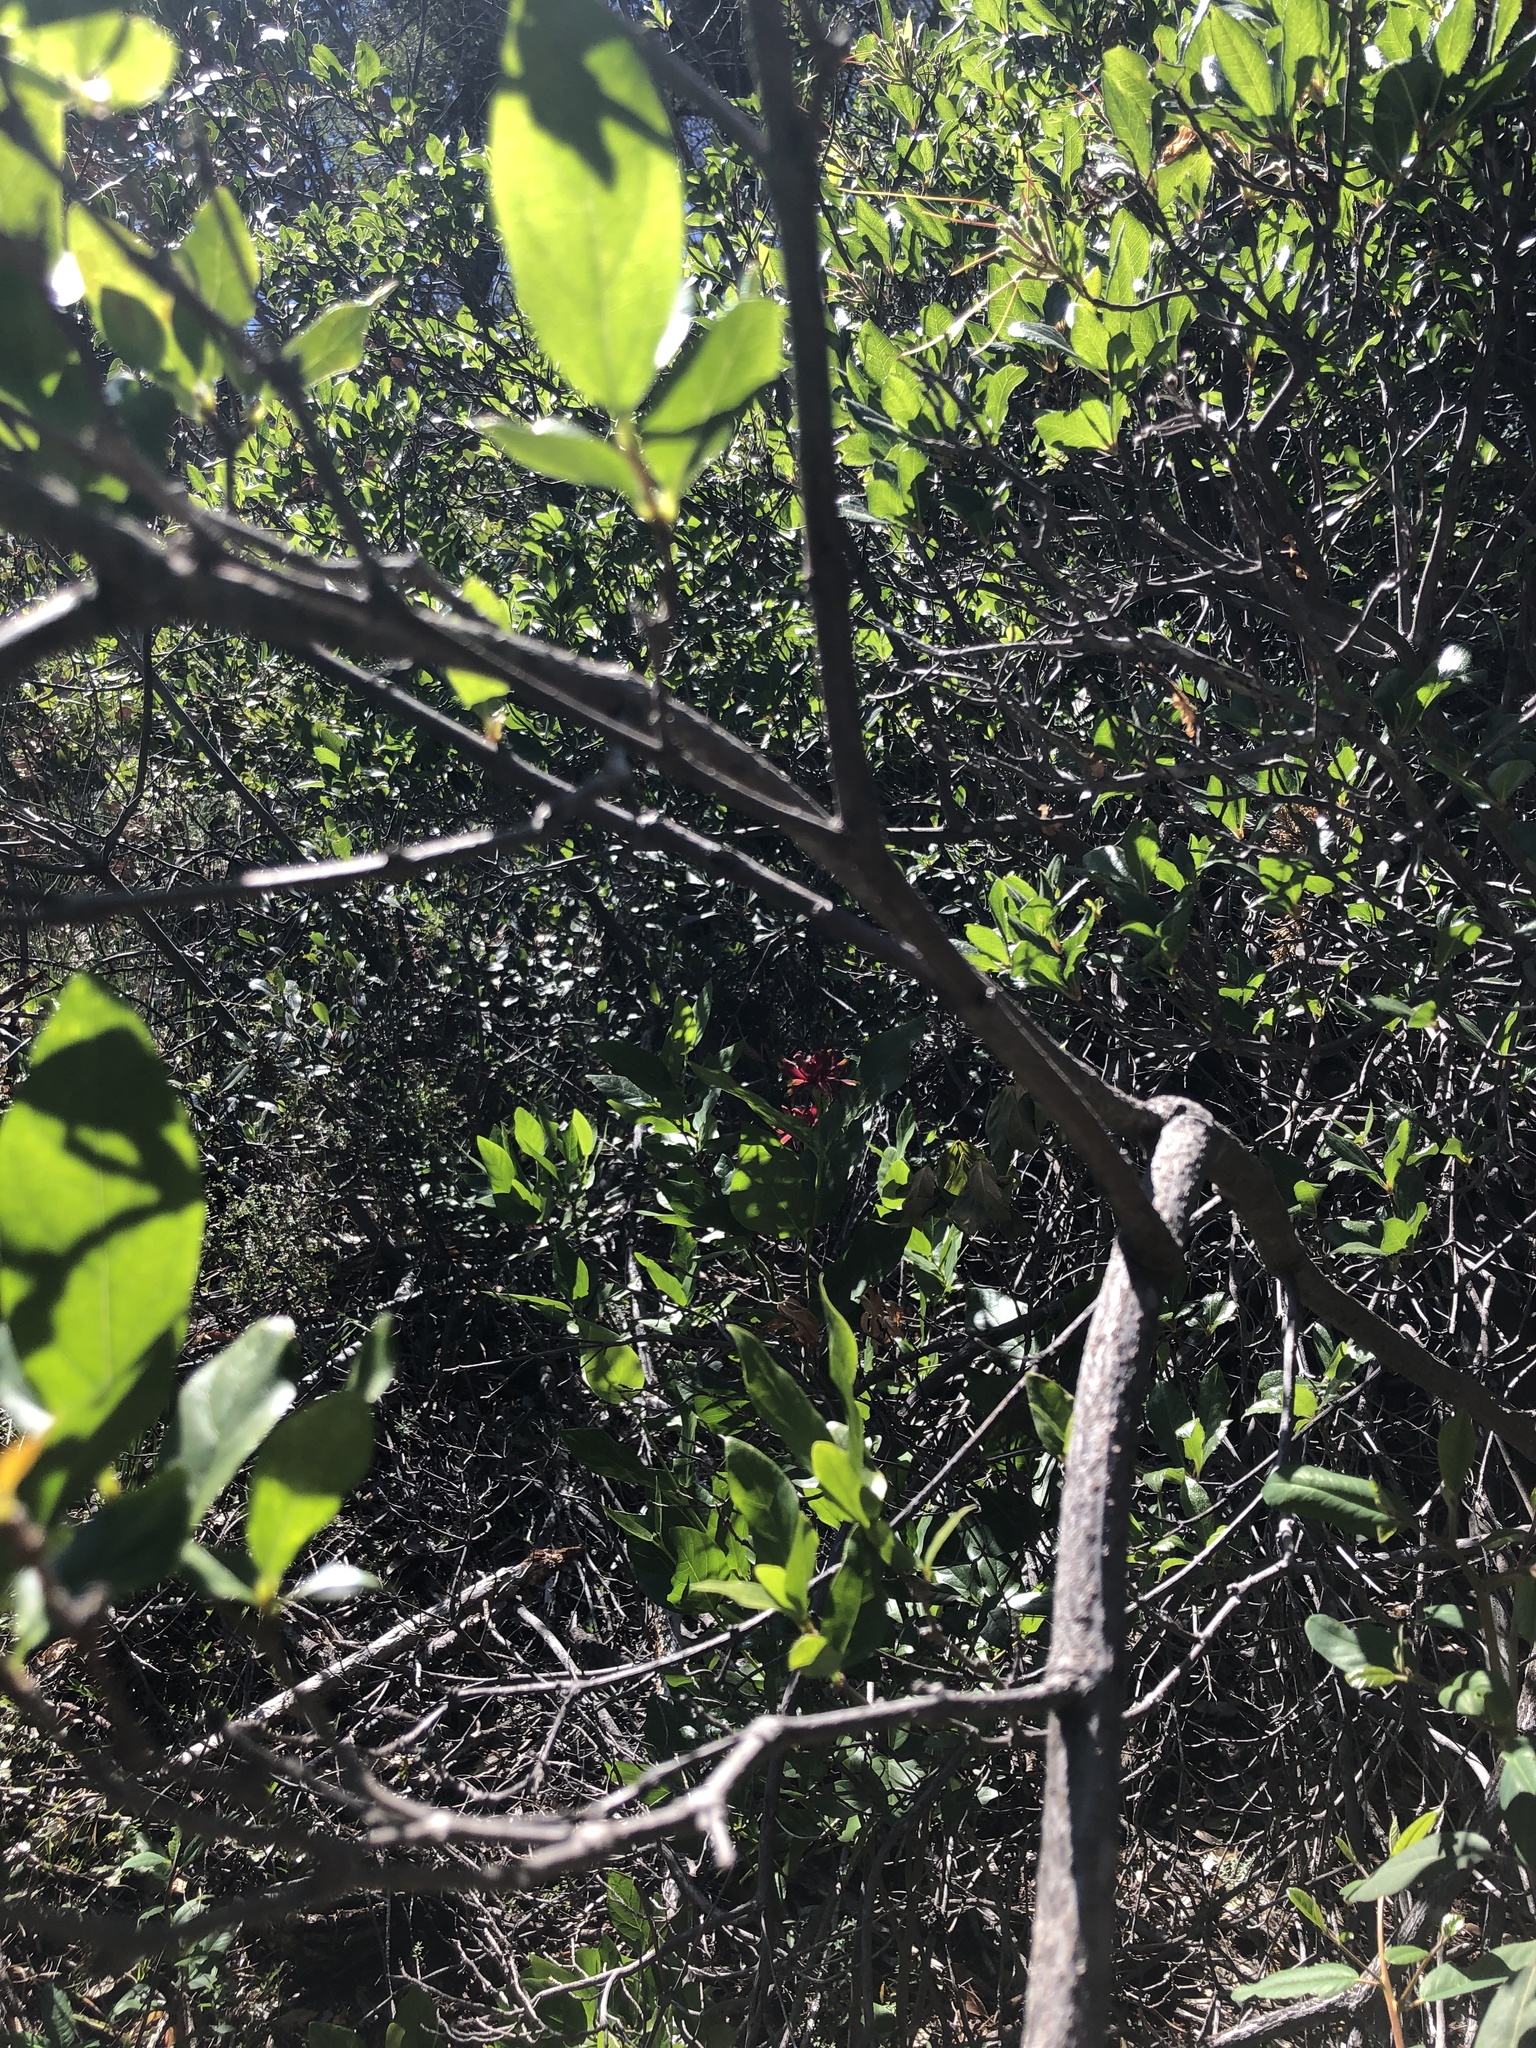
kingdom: Plantae
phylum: Tracheophyta
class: Magnoliopsida
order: Laurales
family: Calycanthaceae
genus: Calycanthus
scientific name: Calycanthus occidentalis
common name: California spicebush
